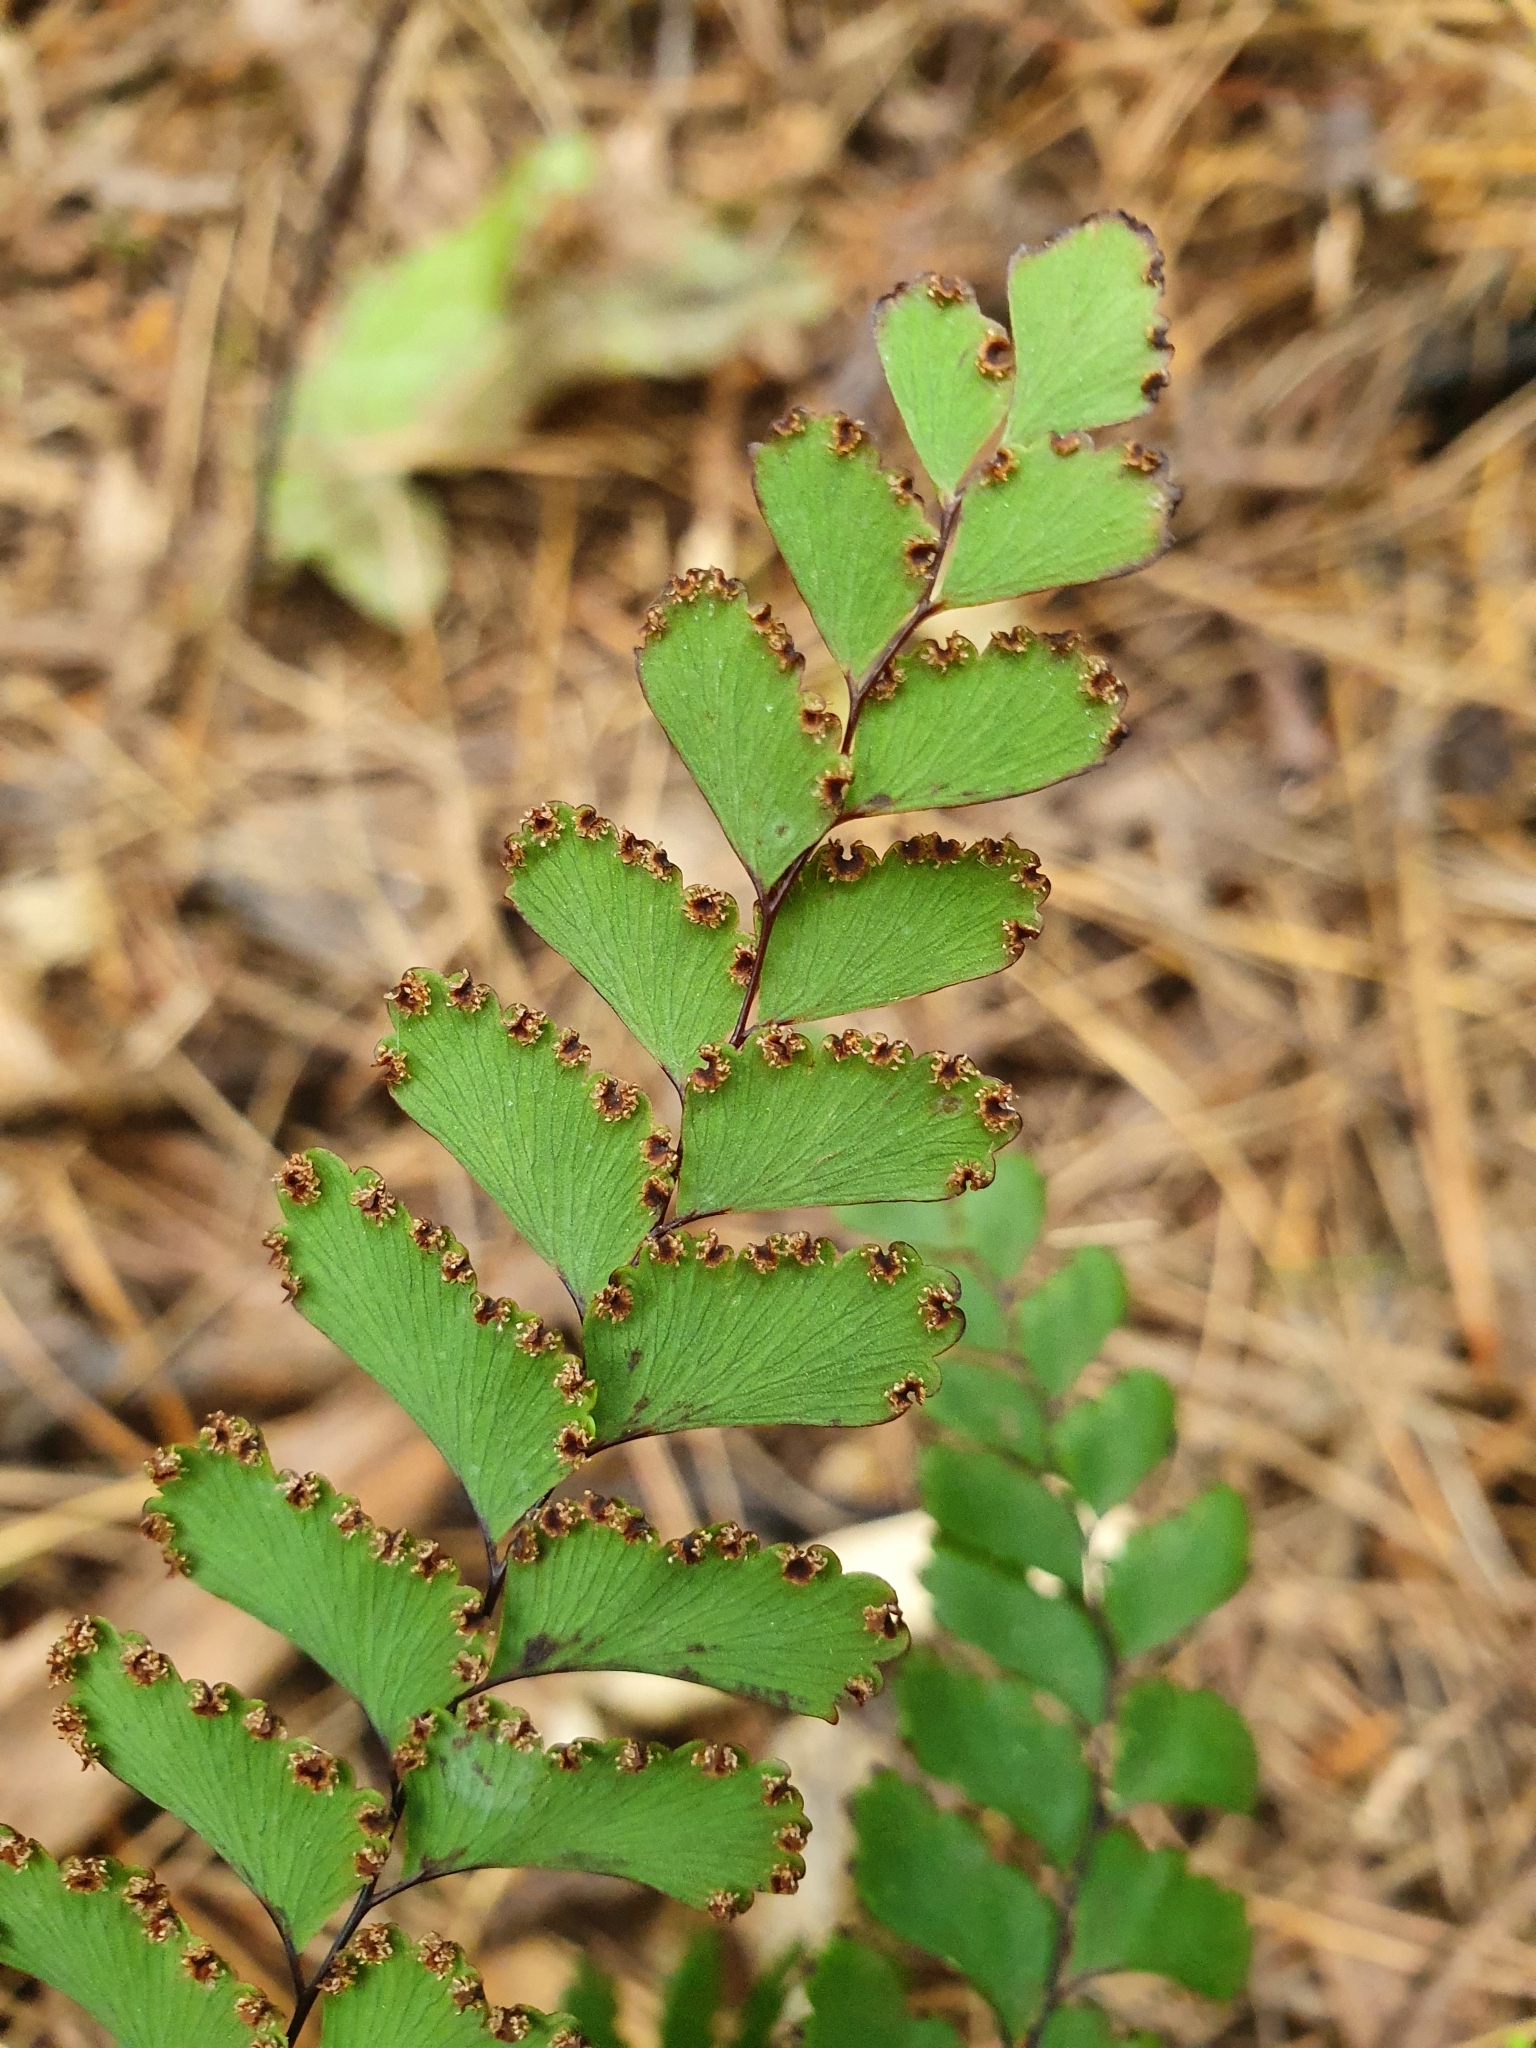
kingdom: Plantae
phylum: Tracheophyta
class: Polypodiopsida
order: Polypodiales
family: Pteridaceae
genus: Adiantum
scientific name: Adiantum cunninghamii
